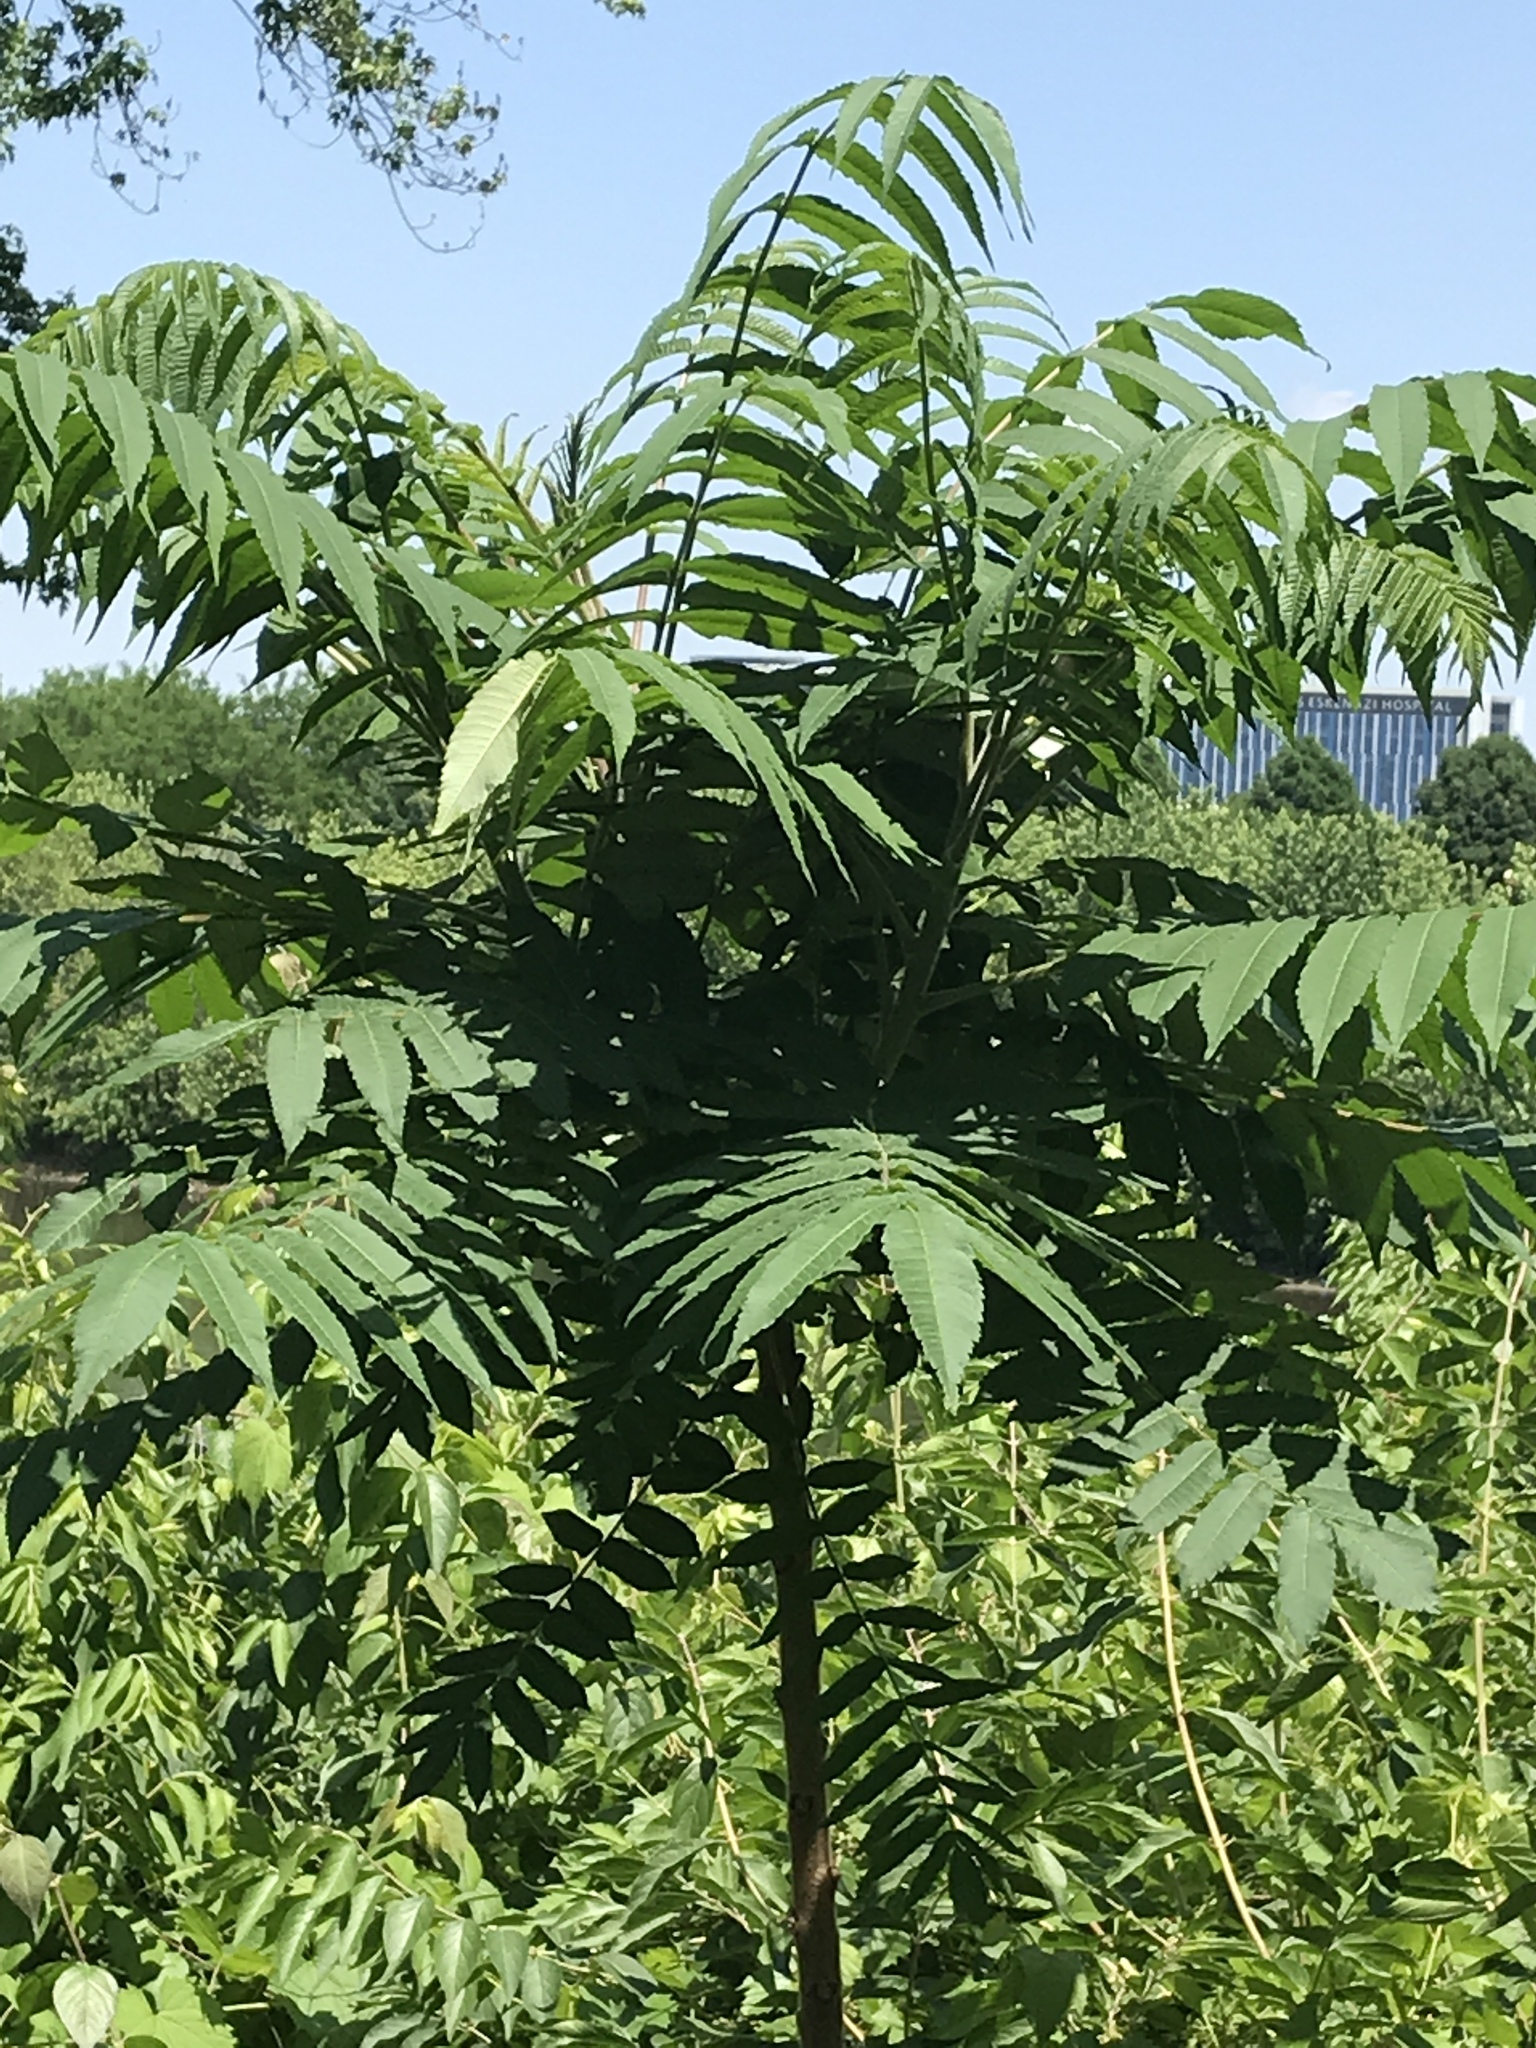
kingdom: Plantae
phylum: Tracheophyta
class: Magnoliopsida
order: Sapindales
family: Simaroubaceae
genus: Ailanthus
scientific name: Ailanthus altissima
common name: Tree-of-heaven
